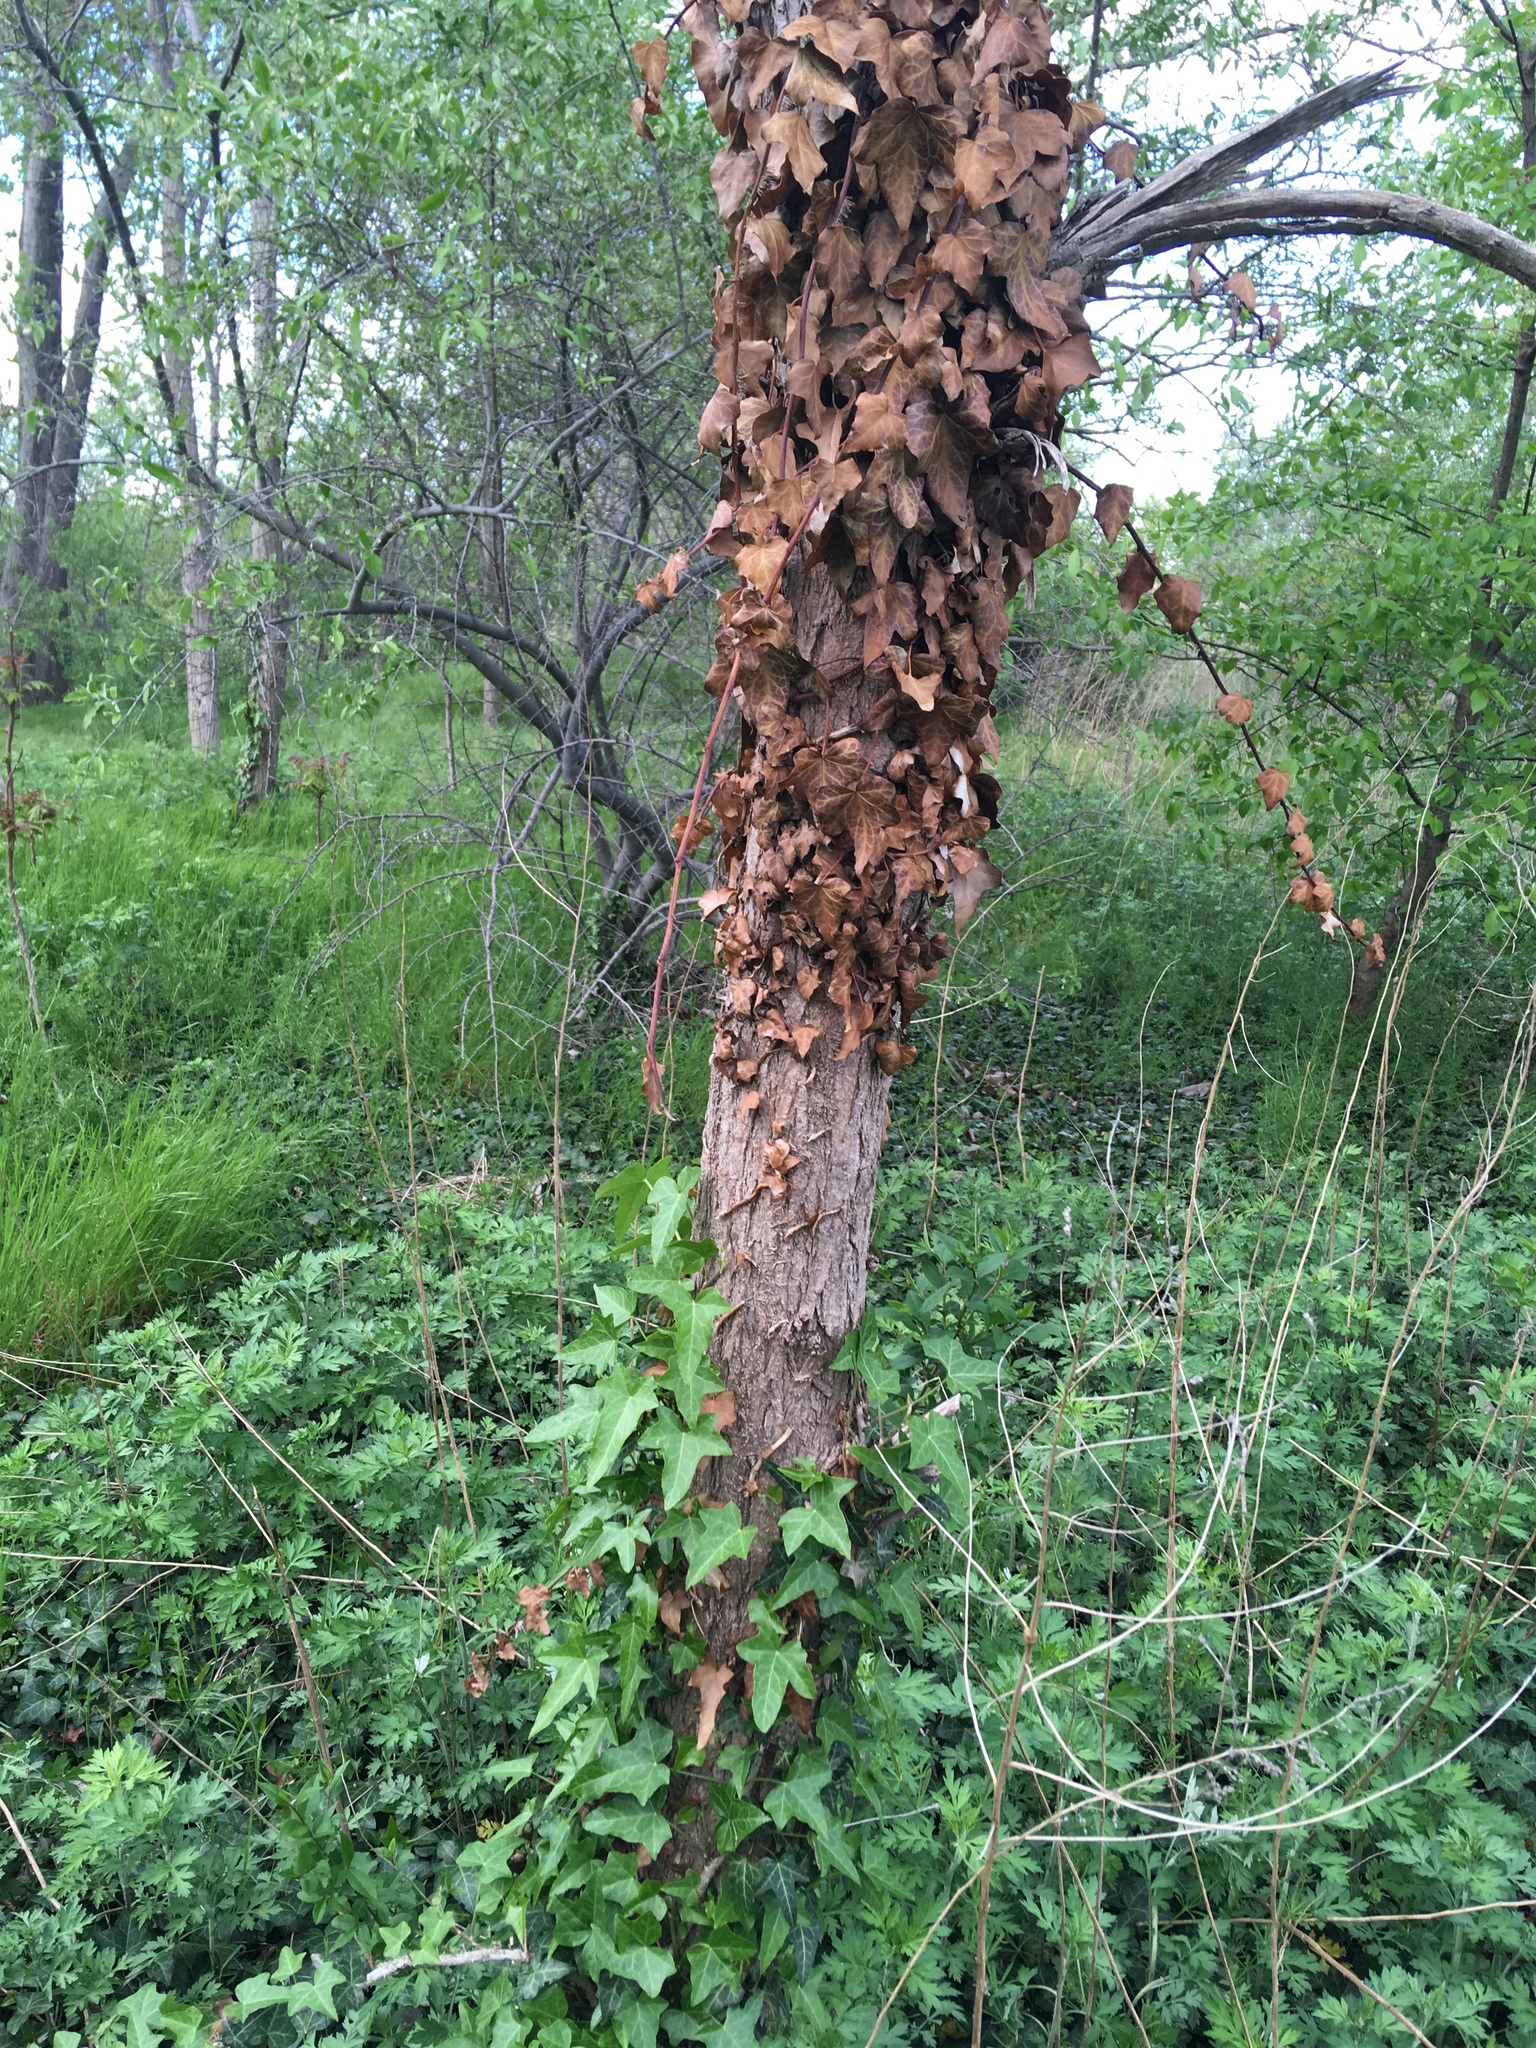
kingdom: Plantae
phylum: Tracheophyta
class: Magnoliopsida
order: Apiales
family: Araliaceae
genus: Hedera
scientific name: Hedera helix
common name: Ivy
